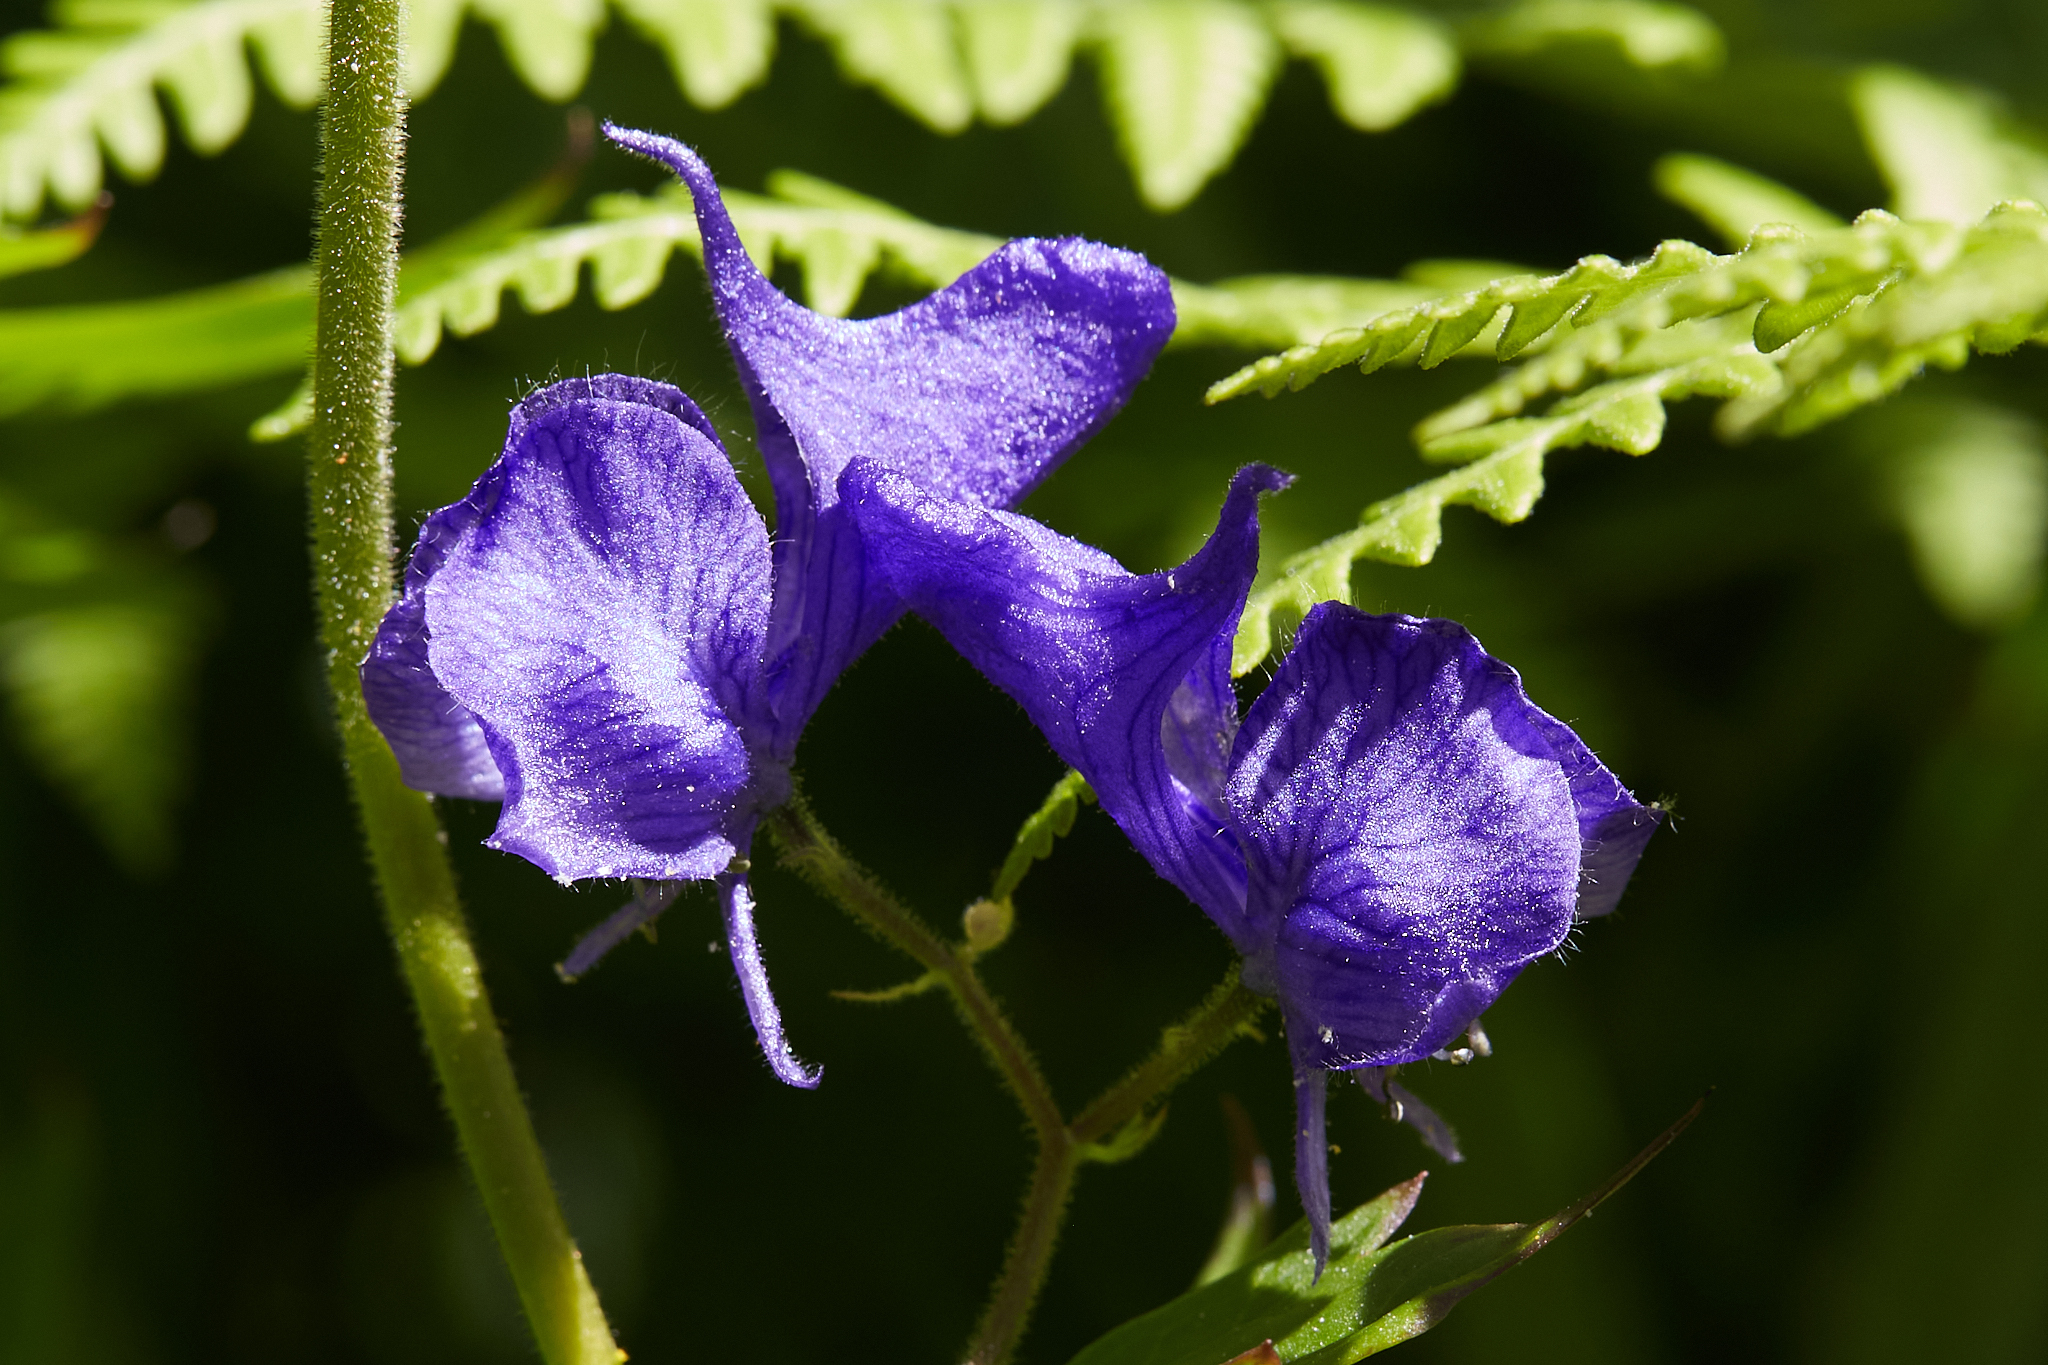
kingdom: Plantae
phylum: Tracheophyta
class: Magnoliopsida
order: Ranunculales
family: Ranunculaceae
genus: Aconitum
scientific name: Aconitum columbianum
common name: Columbia aconite
